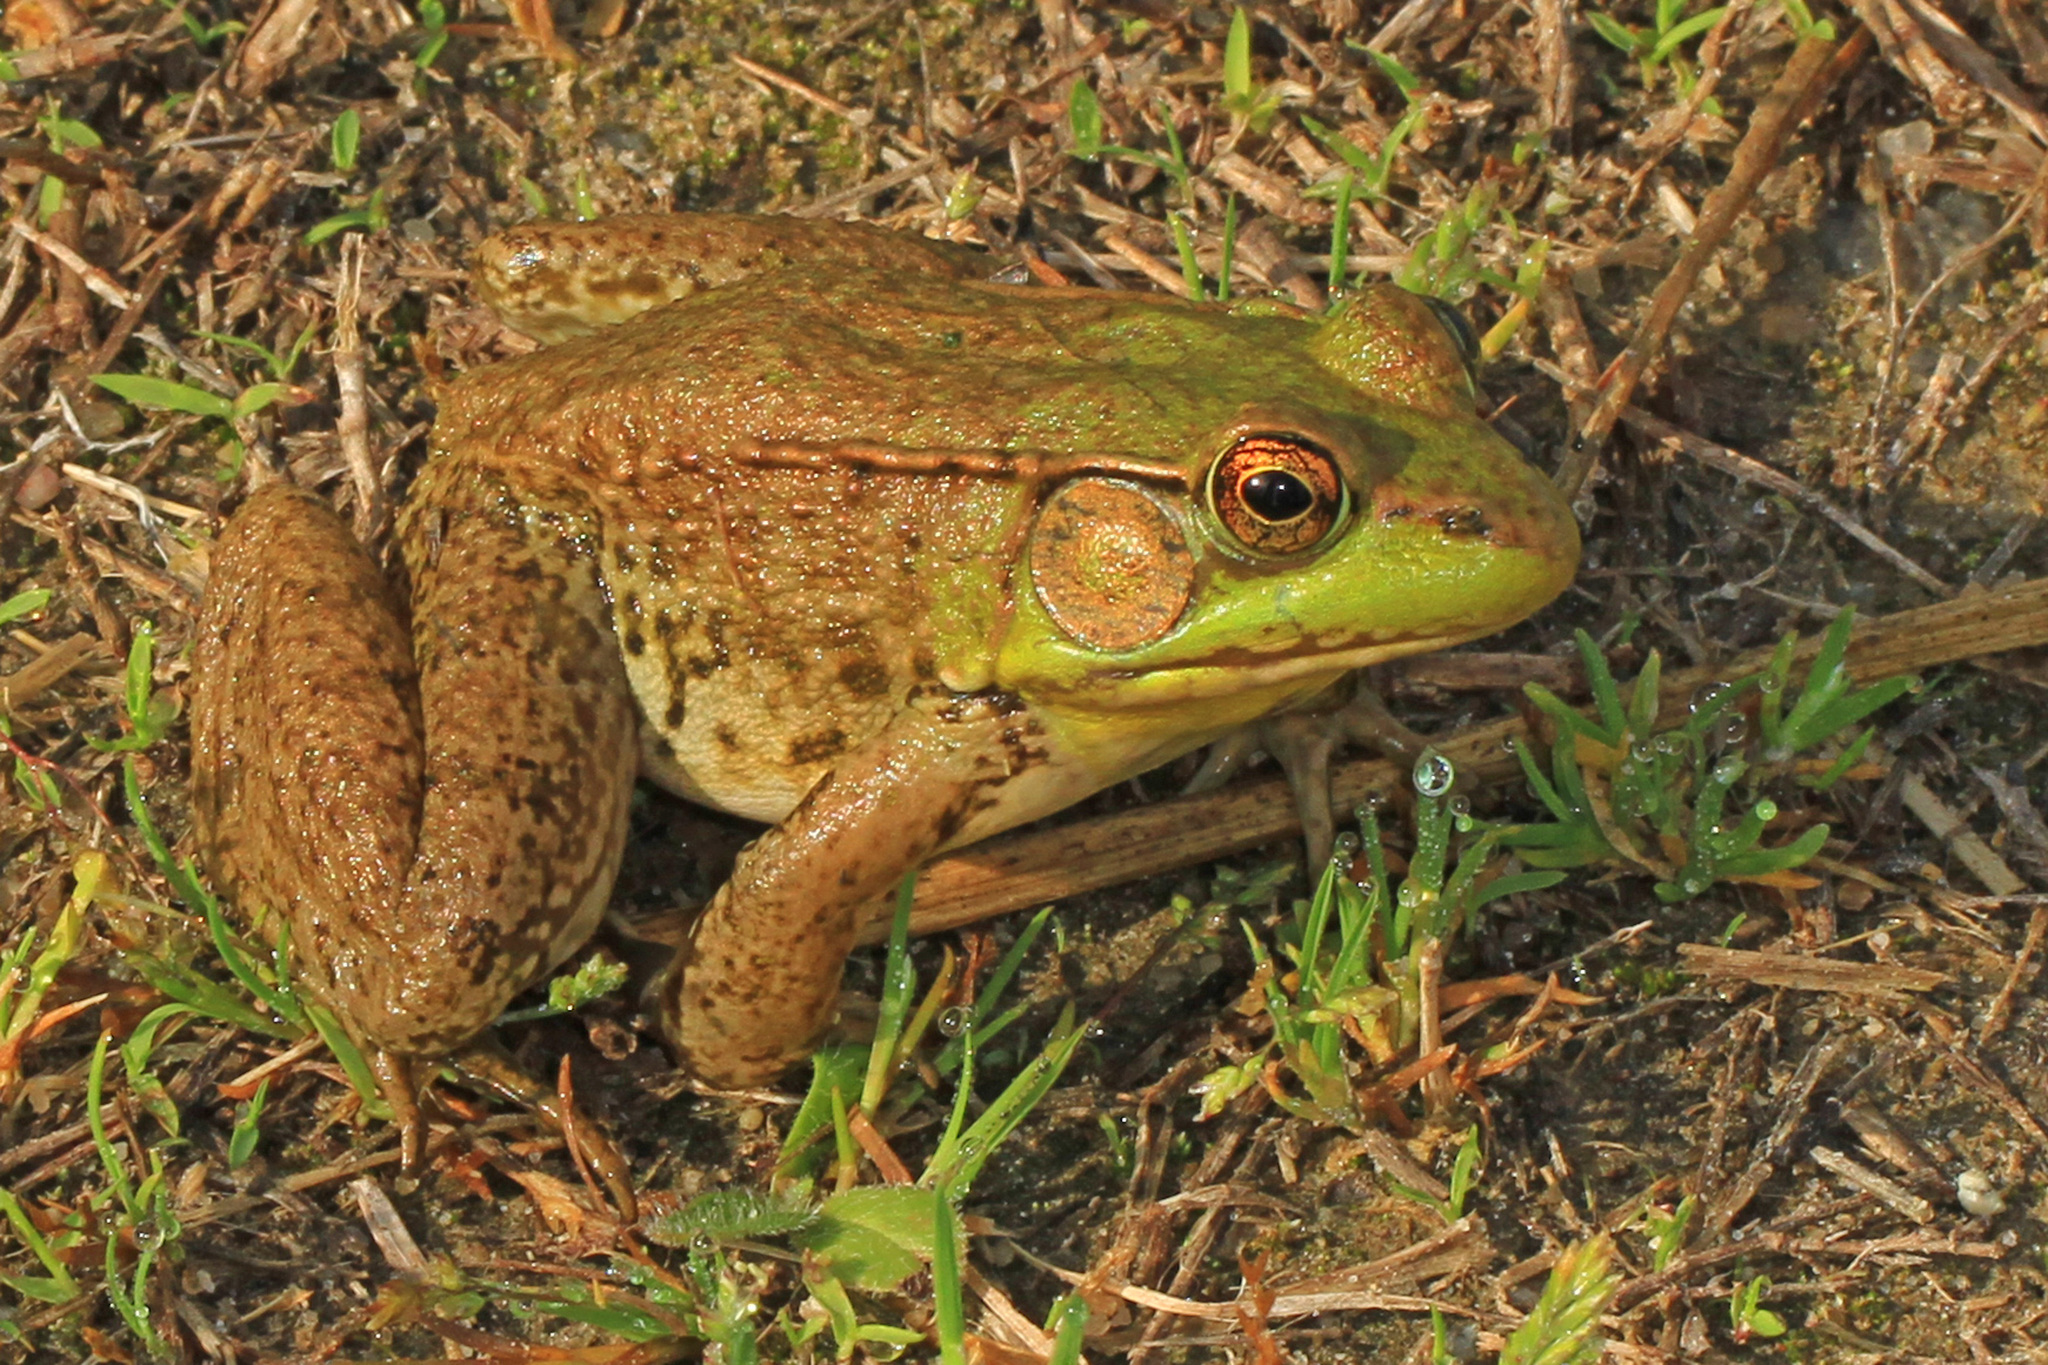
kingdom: Animalia
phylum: Chordata
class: Amphibia
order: Anura
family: Ranidae
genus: Lithobates
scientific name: Lithobates clamitans
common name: Green frog
